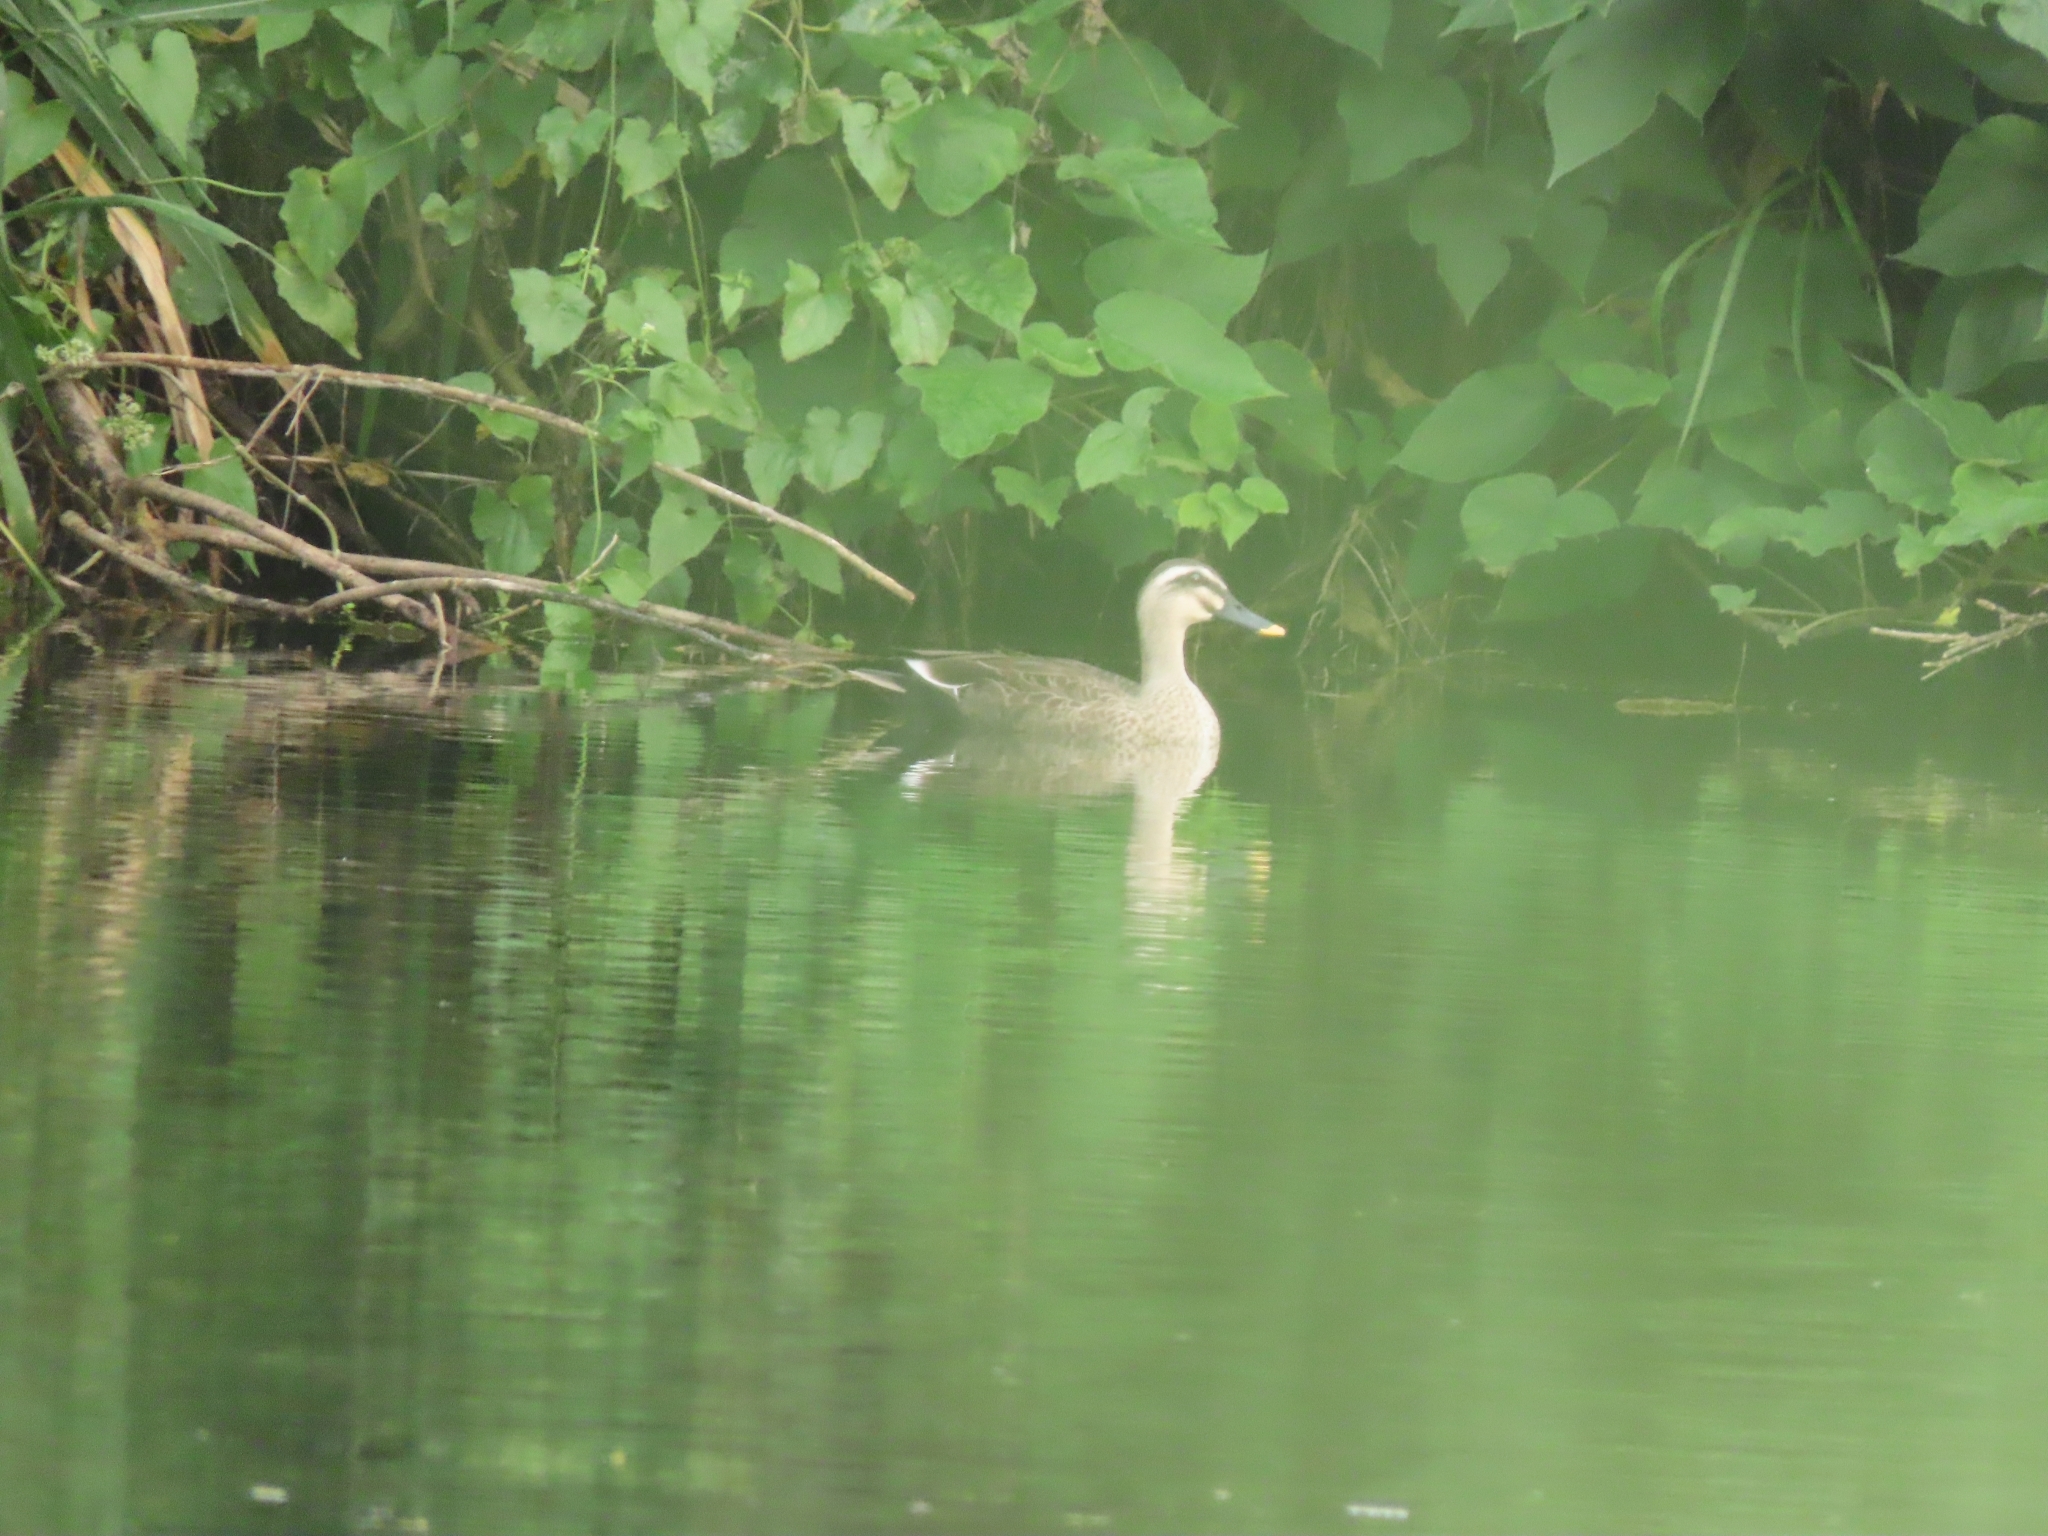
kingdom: Animalia
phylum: Chordata
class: Aves
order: Anseriformes
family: Anatidae
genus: Anas
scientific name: Anas zonorhyncha
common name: Eastern spot-billed duck
